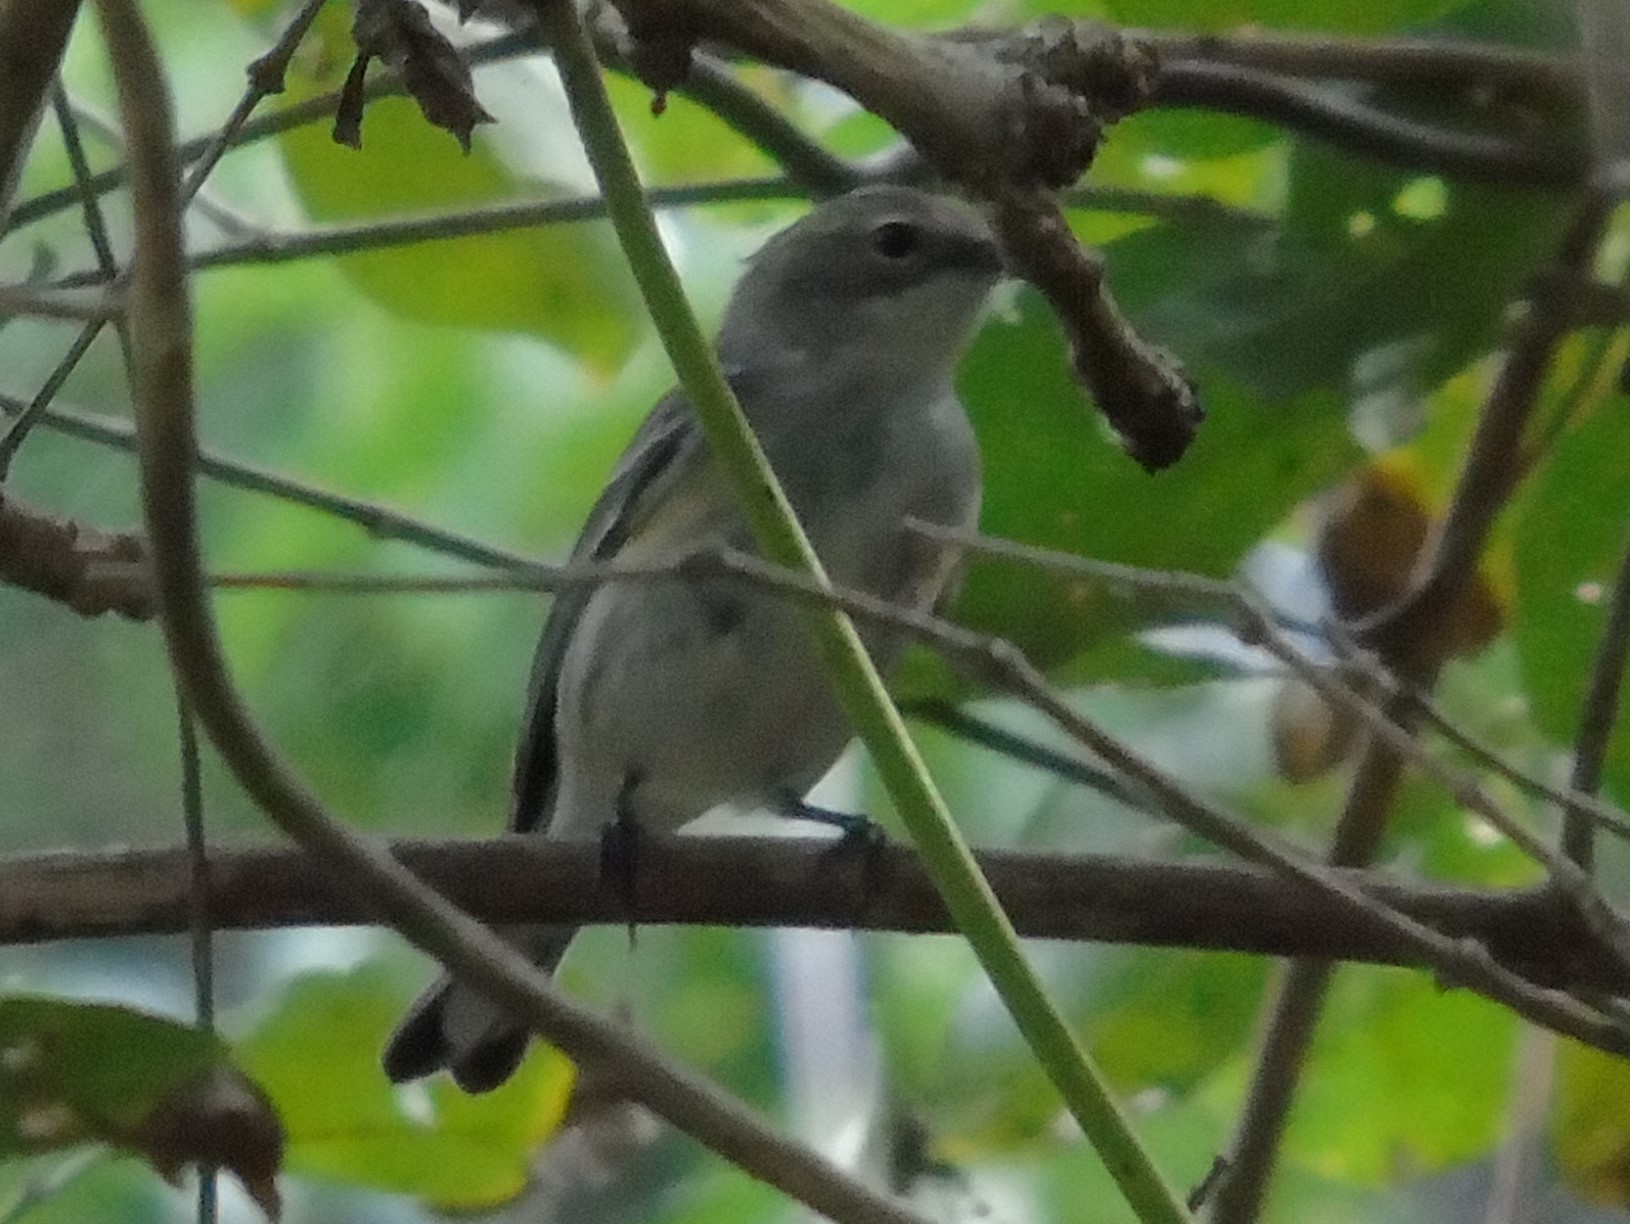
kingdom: Animalia
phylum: Chordata
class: Aves
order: Passeriformes
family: Parulidae
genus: Setophaga
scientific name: Setophaga coronata
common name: Myrtle warbler
